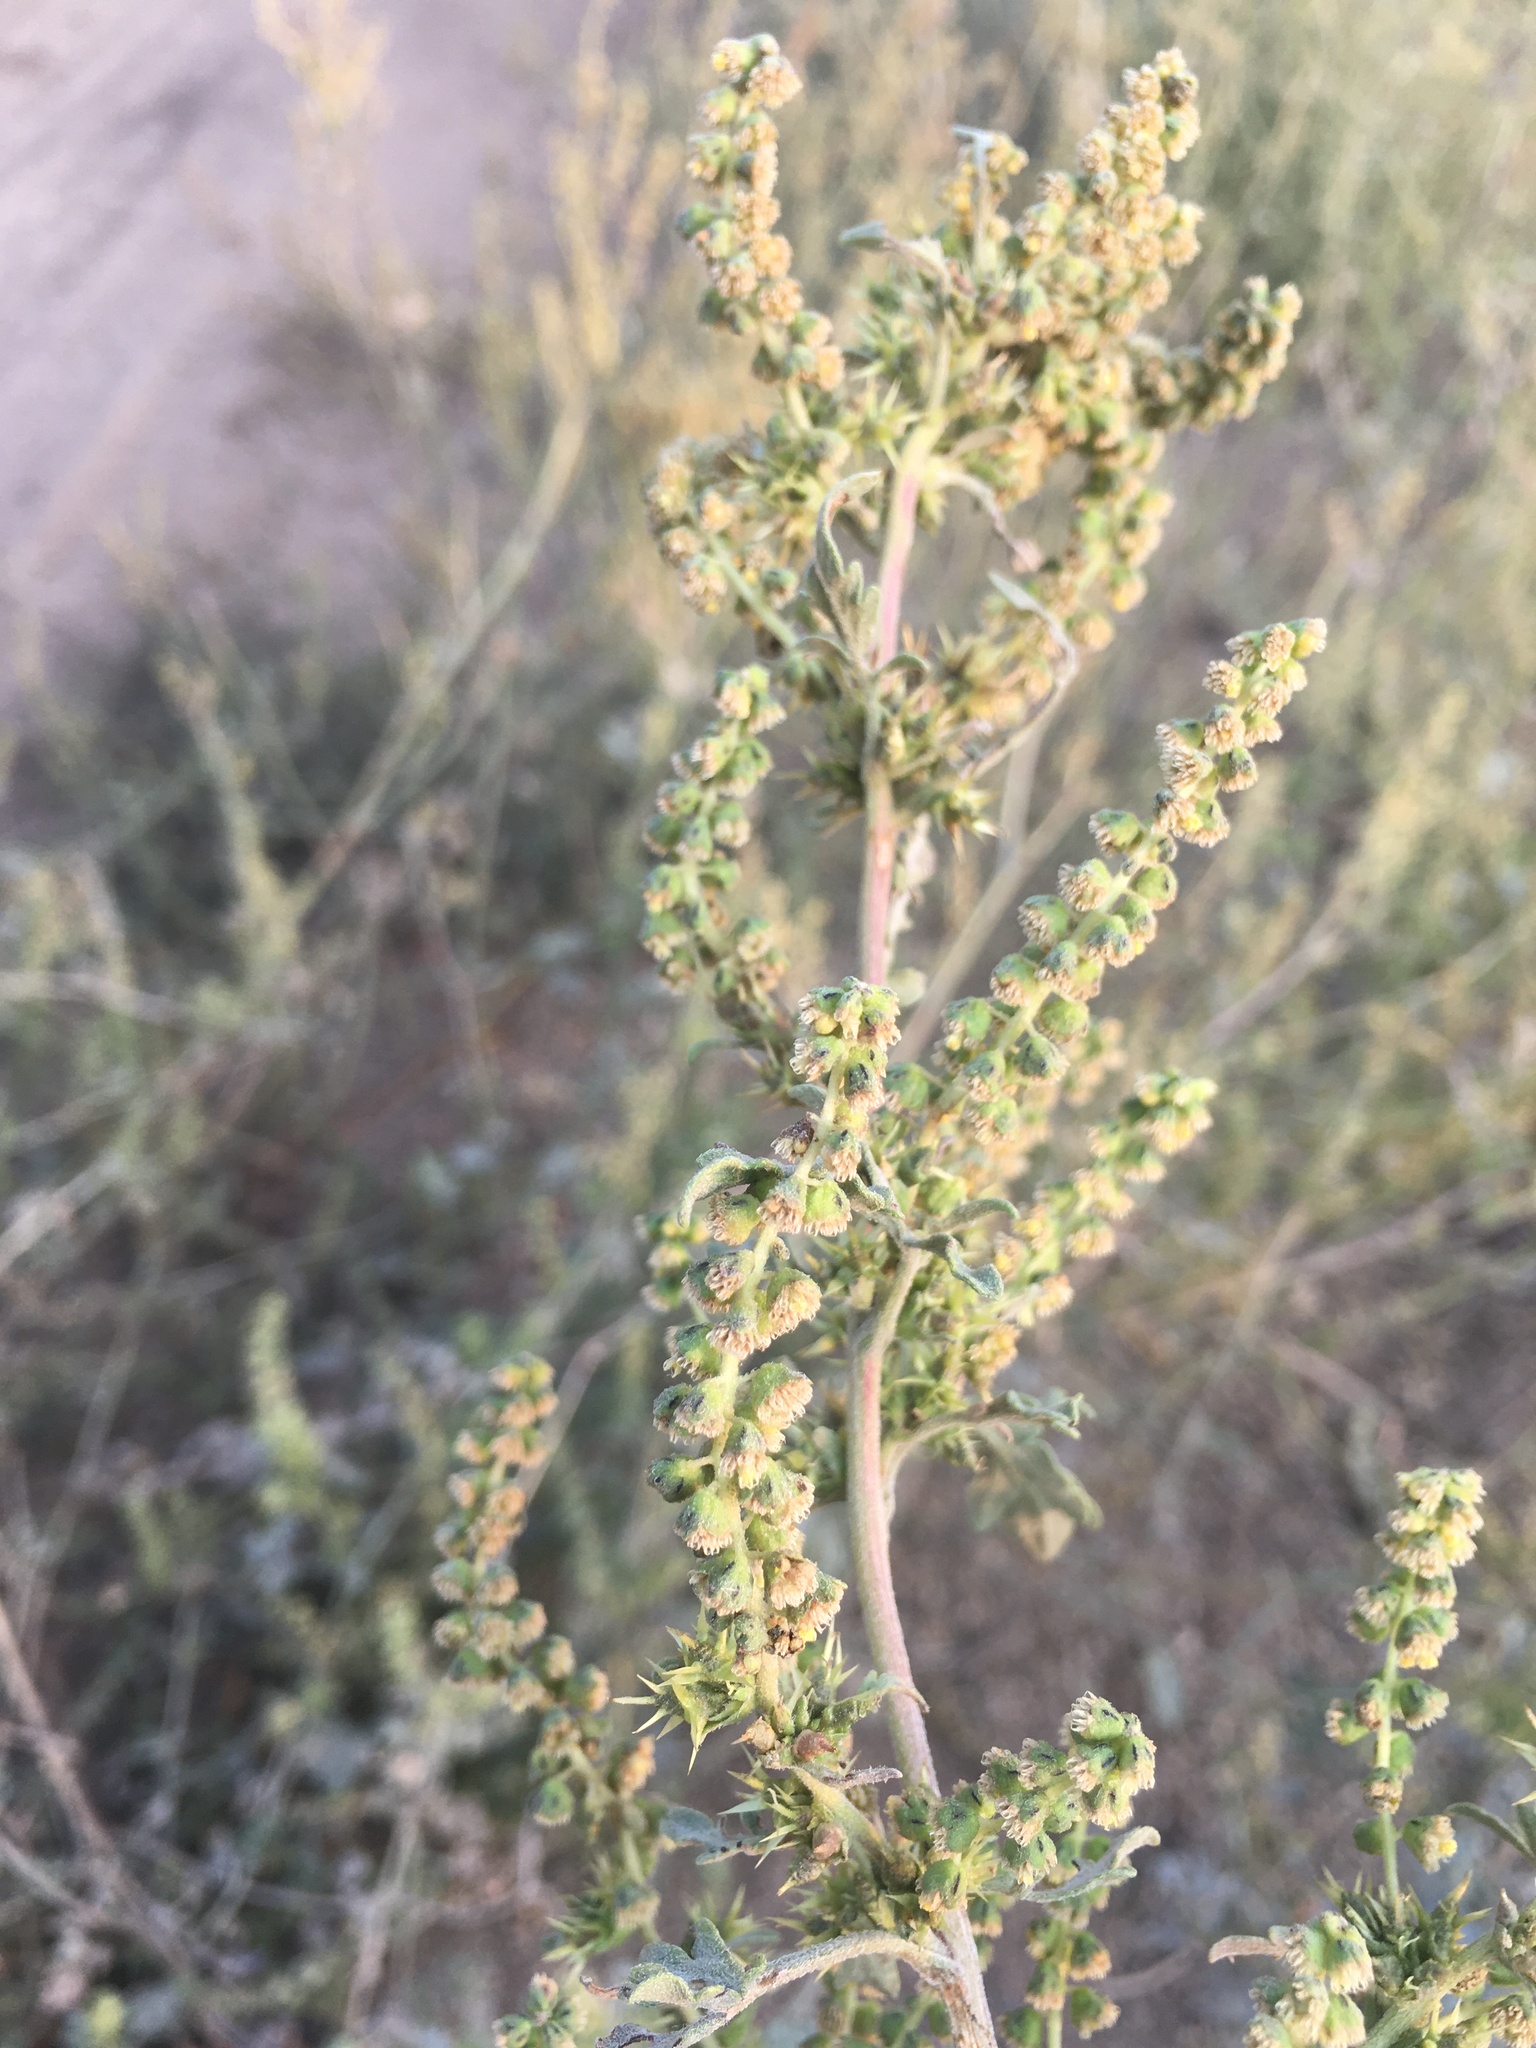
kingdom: Plantae
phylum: Tracheophyta
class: Magnoliopsida
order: Asterales
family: Asteraceae
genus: Ambrosia
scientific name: Ambrosia acanthicarpa
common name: Hooker's bur ragweed
